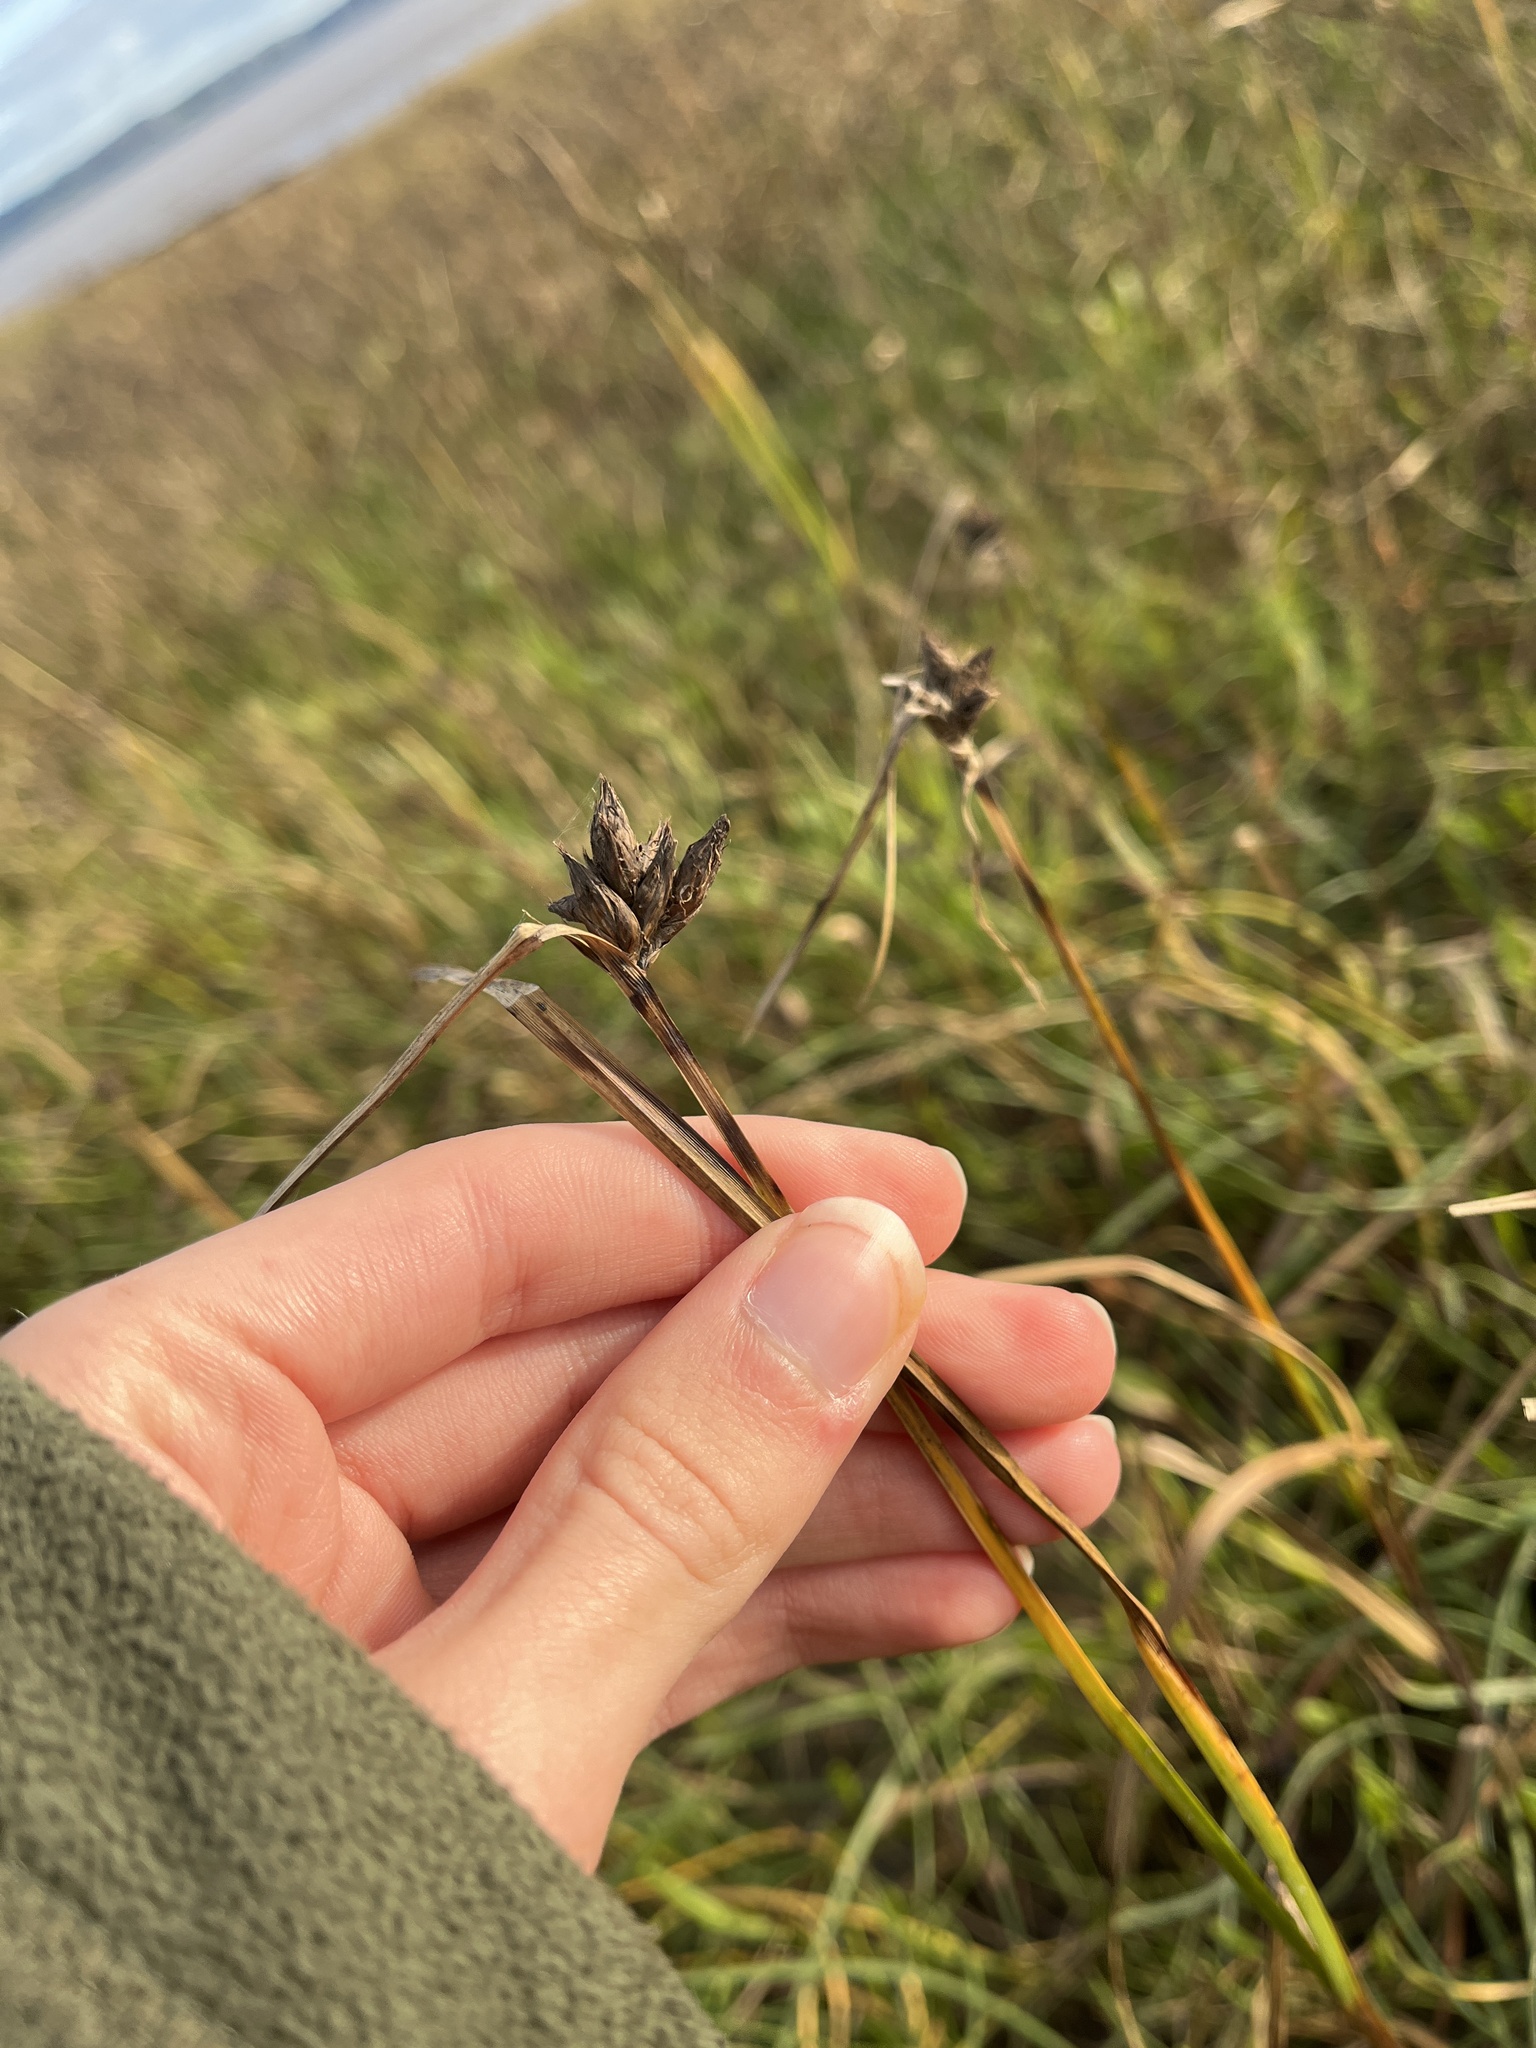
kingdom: Plantae
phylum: Tracheophyta
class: Liliopsida
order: Poales
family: Cyperaceae
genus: Bolboschoenus
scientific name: Bolboschoenus maritimus
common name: Sea club-rush
